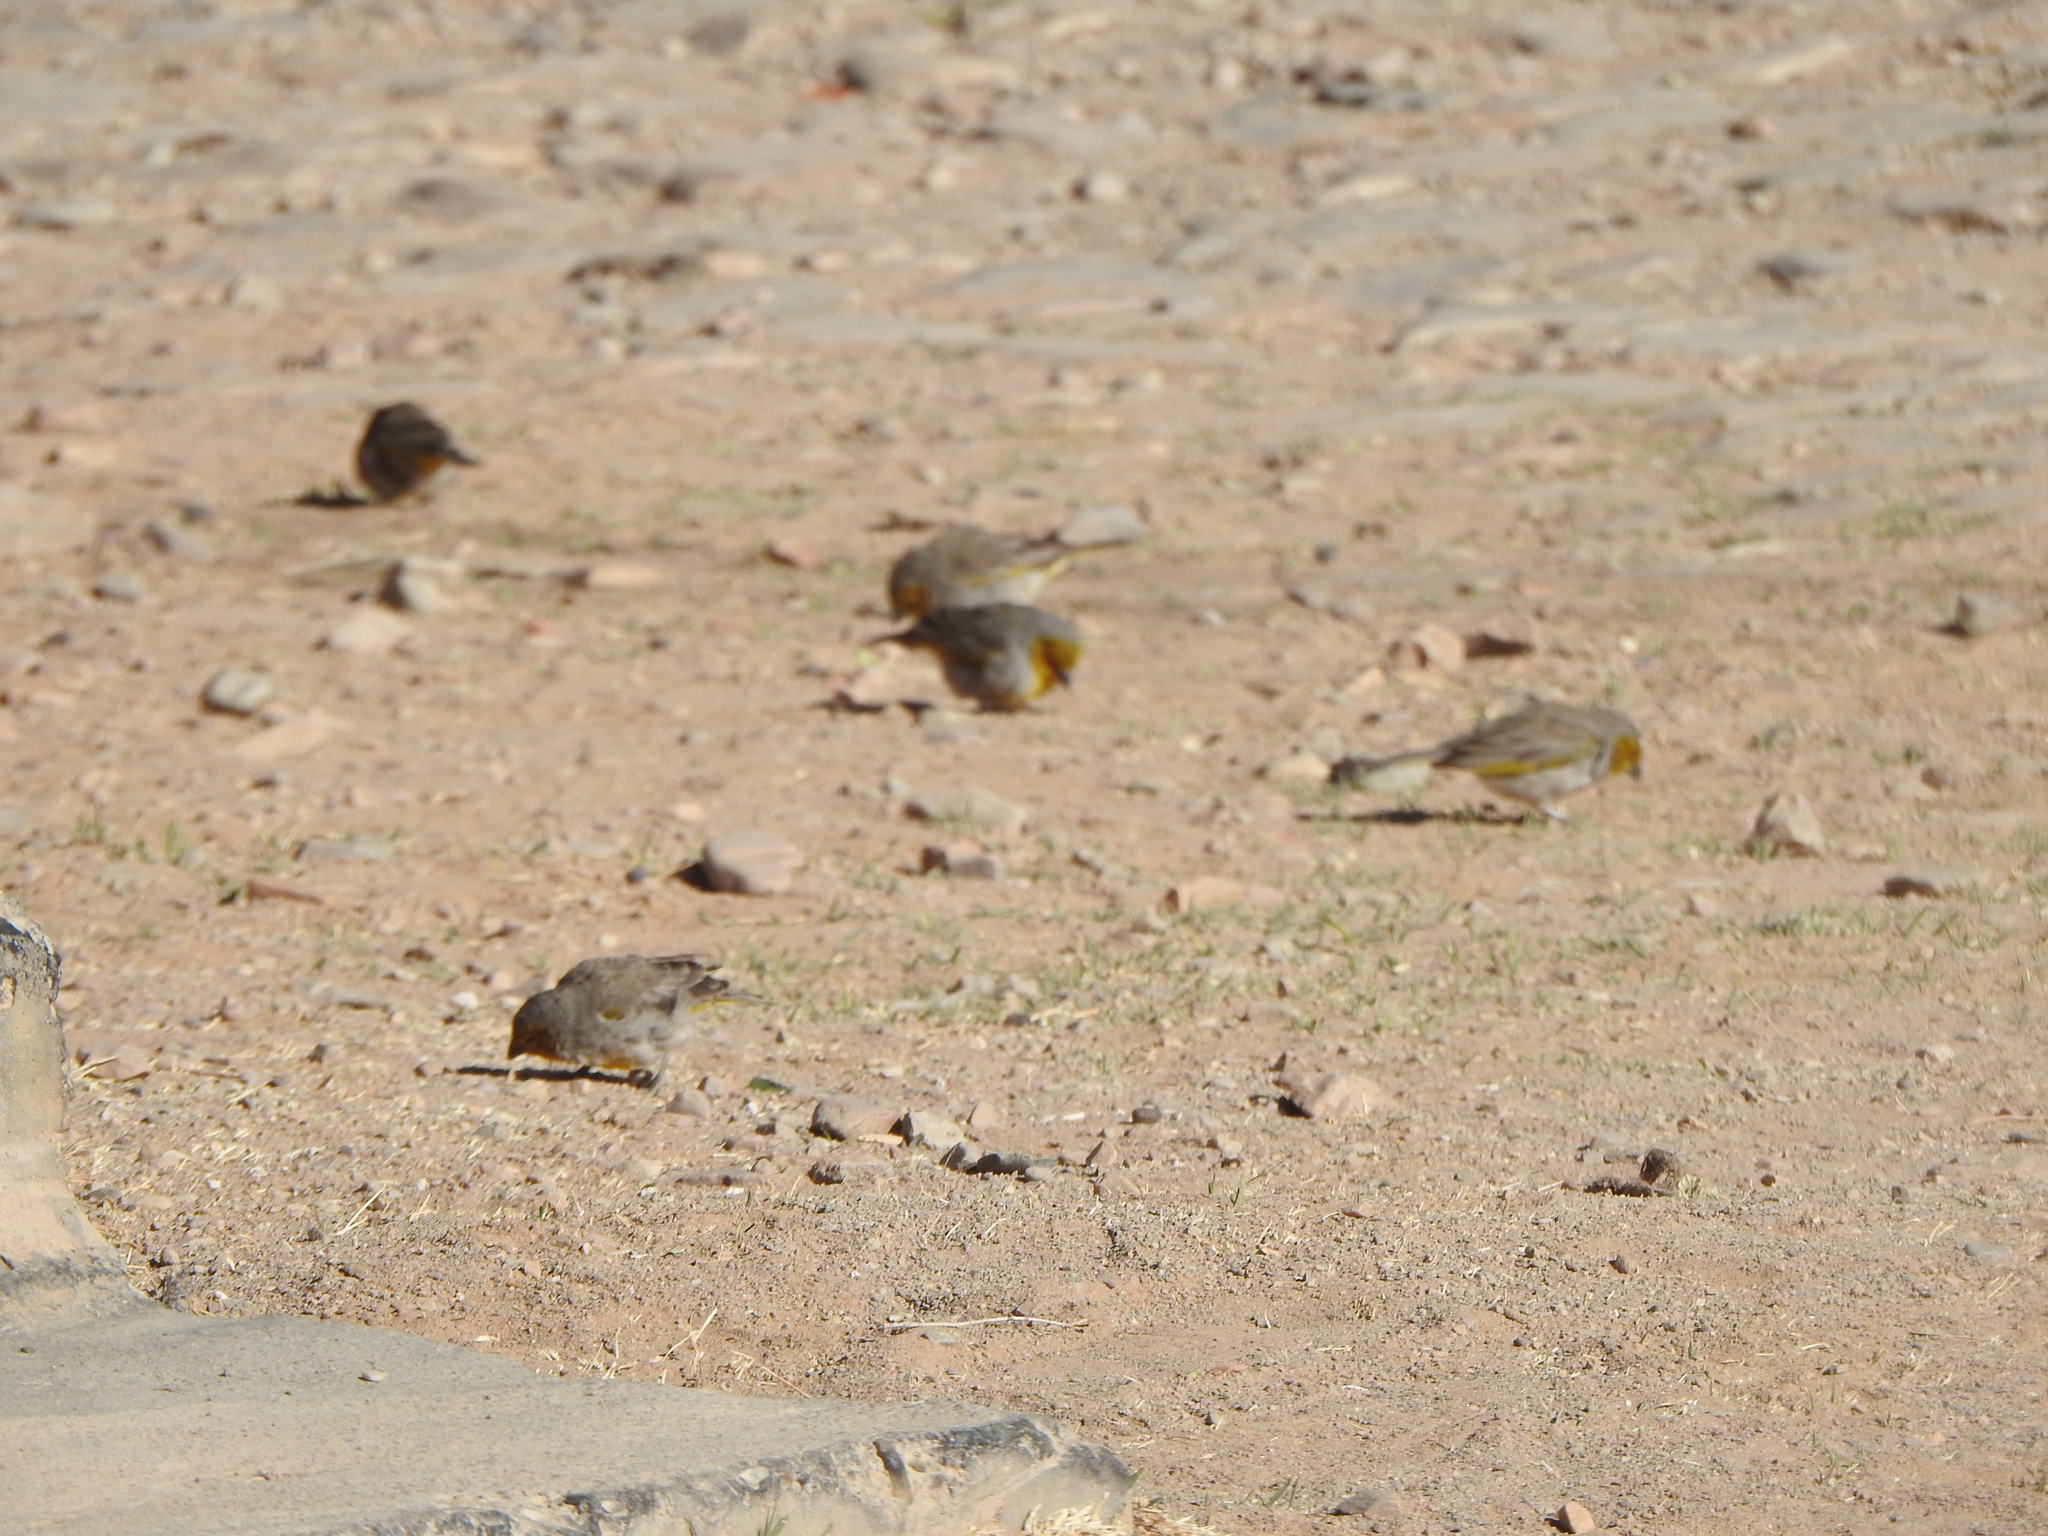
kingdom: Animalia
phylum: Chordata
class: Aves
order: Passeriformes
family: Thraupidae
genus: Sicalis
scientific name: Sicalis luteocephala
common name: Citron-headed yellow finch
